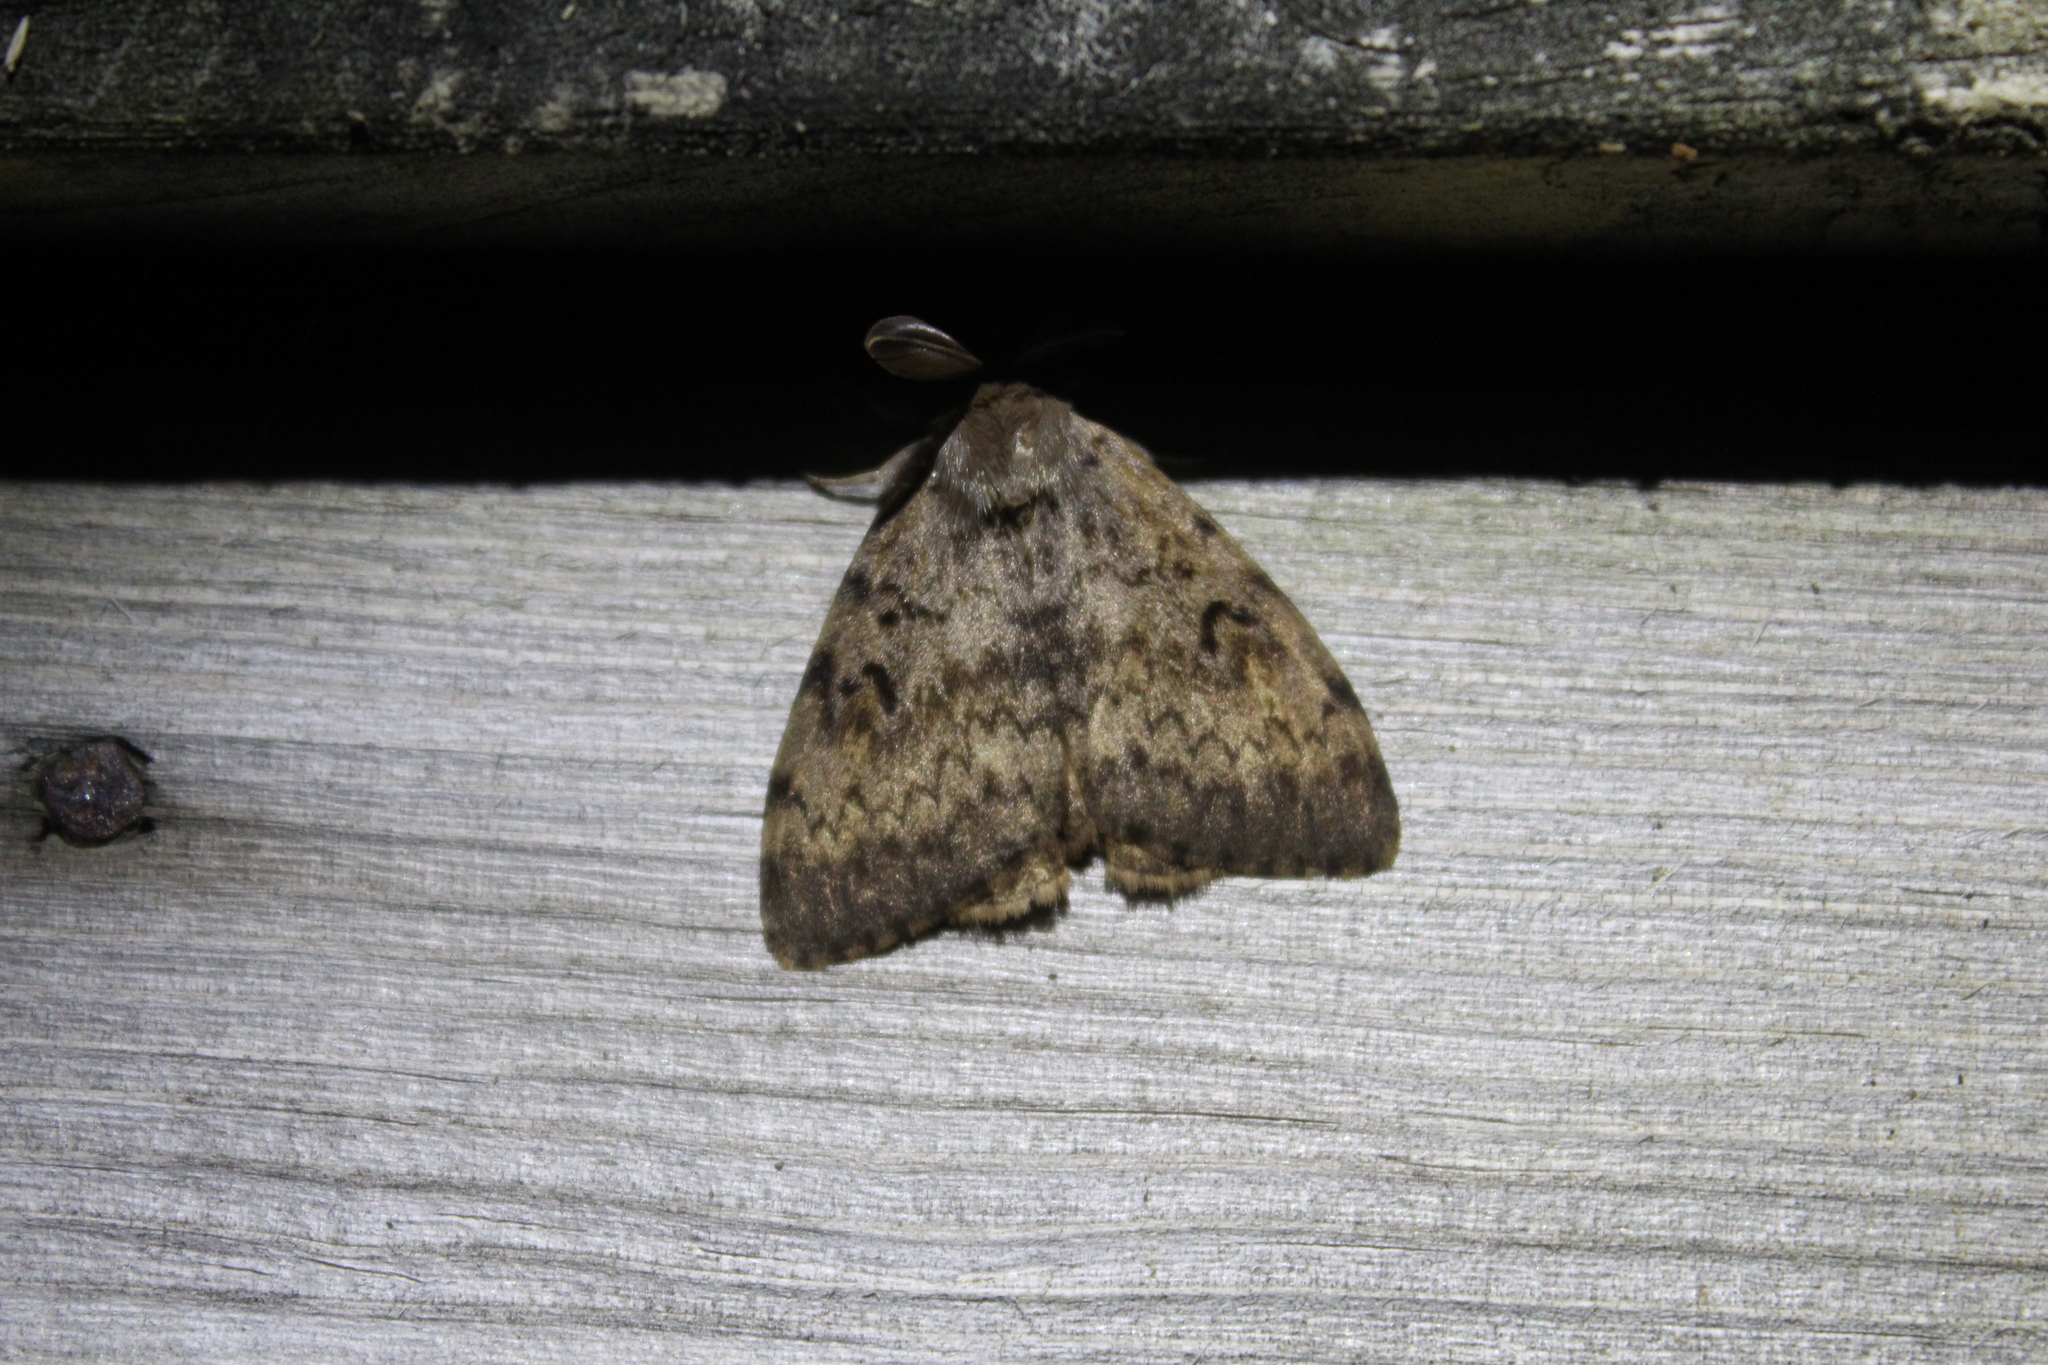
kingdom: Animalia
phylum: Arthropoda
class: Insecta
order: Lepidoptera
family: Erebidae
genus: Lymantria
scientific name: Lymantria dispar
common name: Gypsy moth
